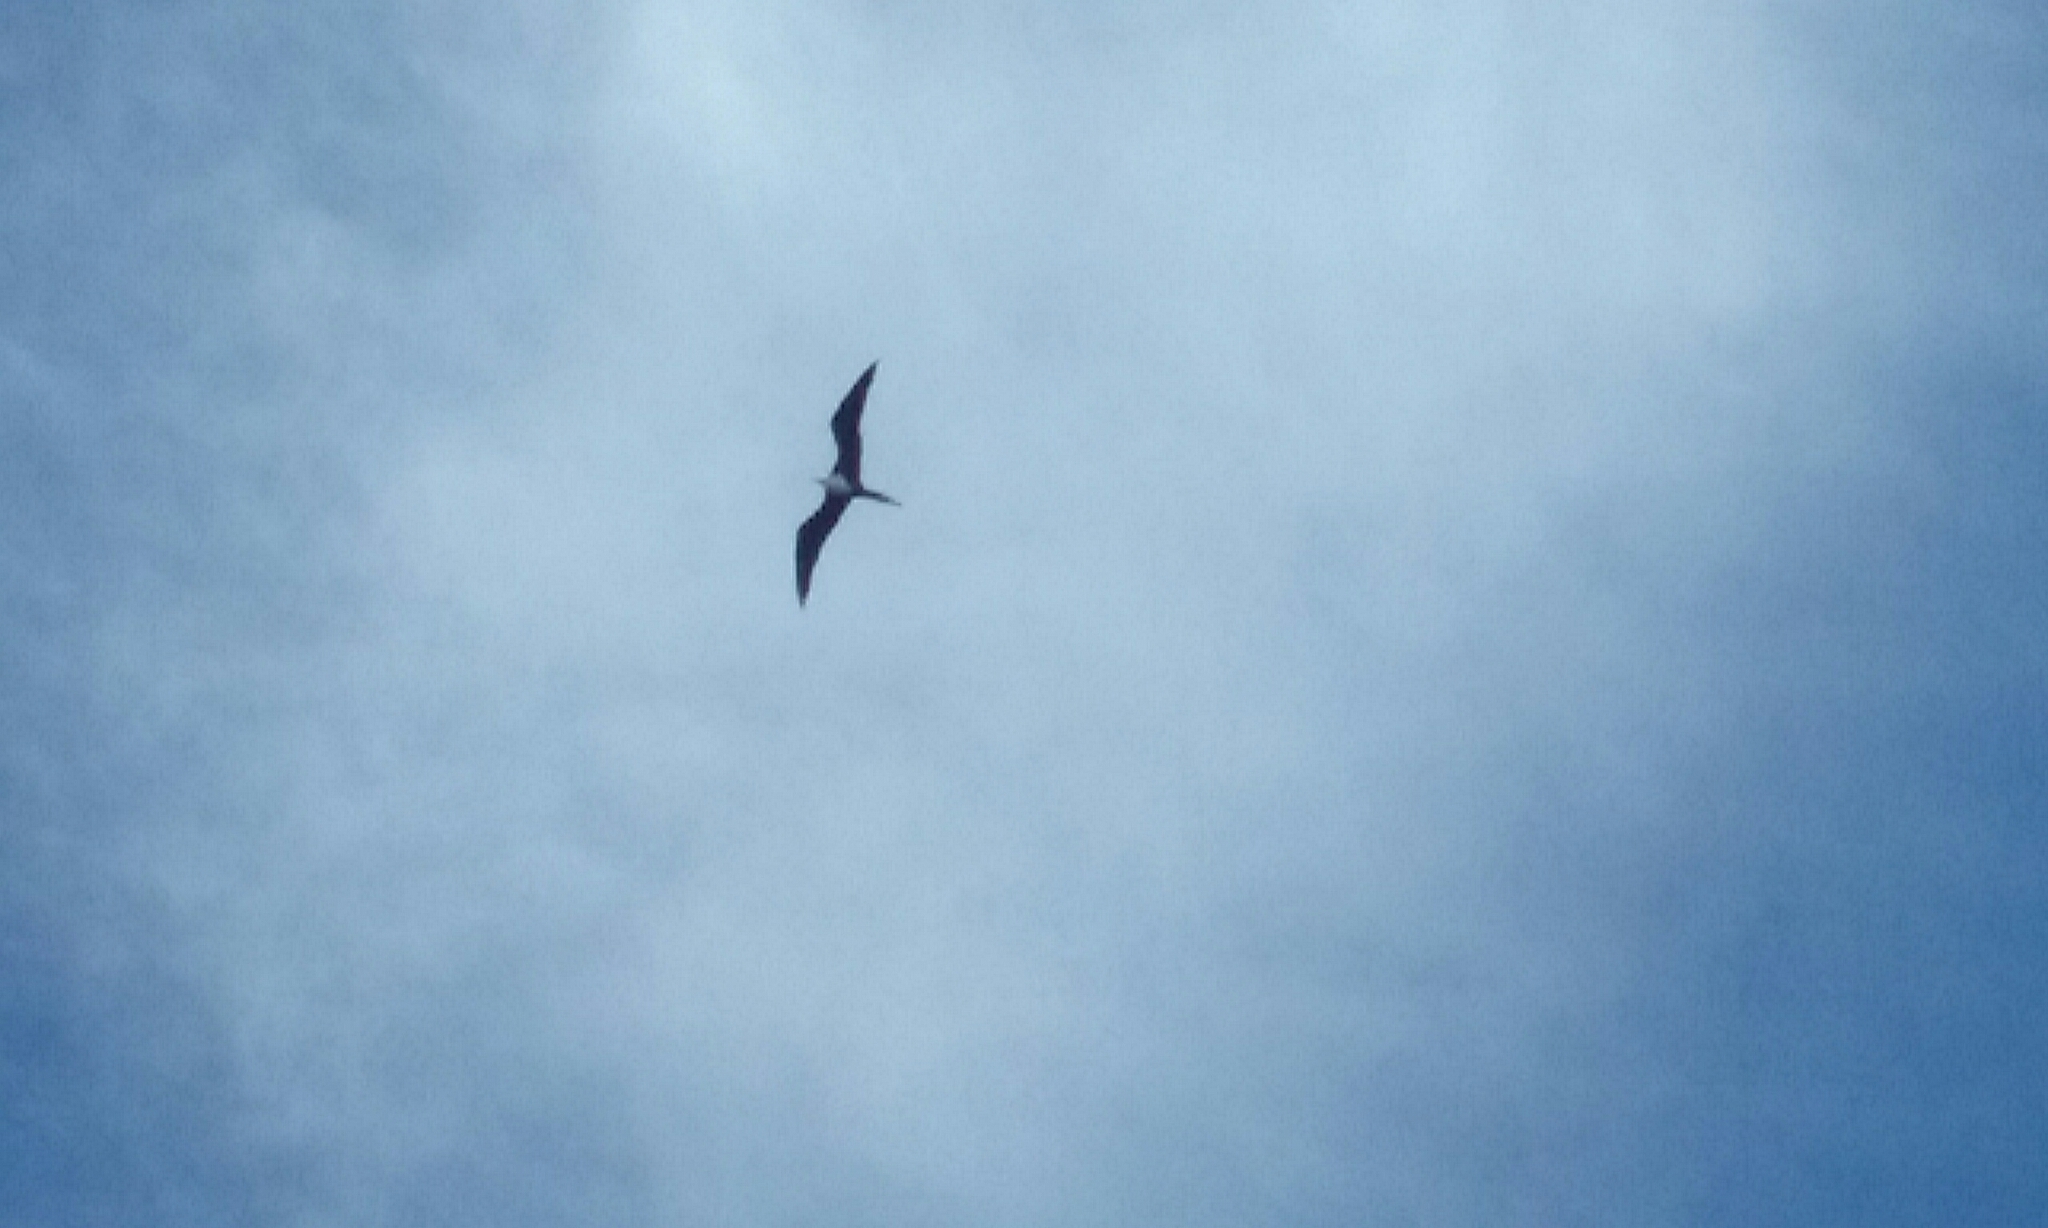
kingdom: Animalia
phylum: Chordata
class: Aves
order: Suliformes
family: Fregatidae
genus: Fregata
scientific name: Fregata magnificens
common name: Magnificent frigatebird
